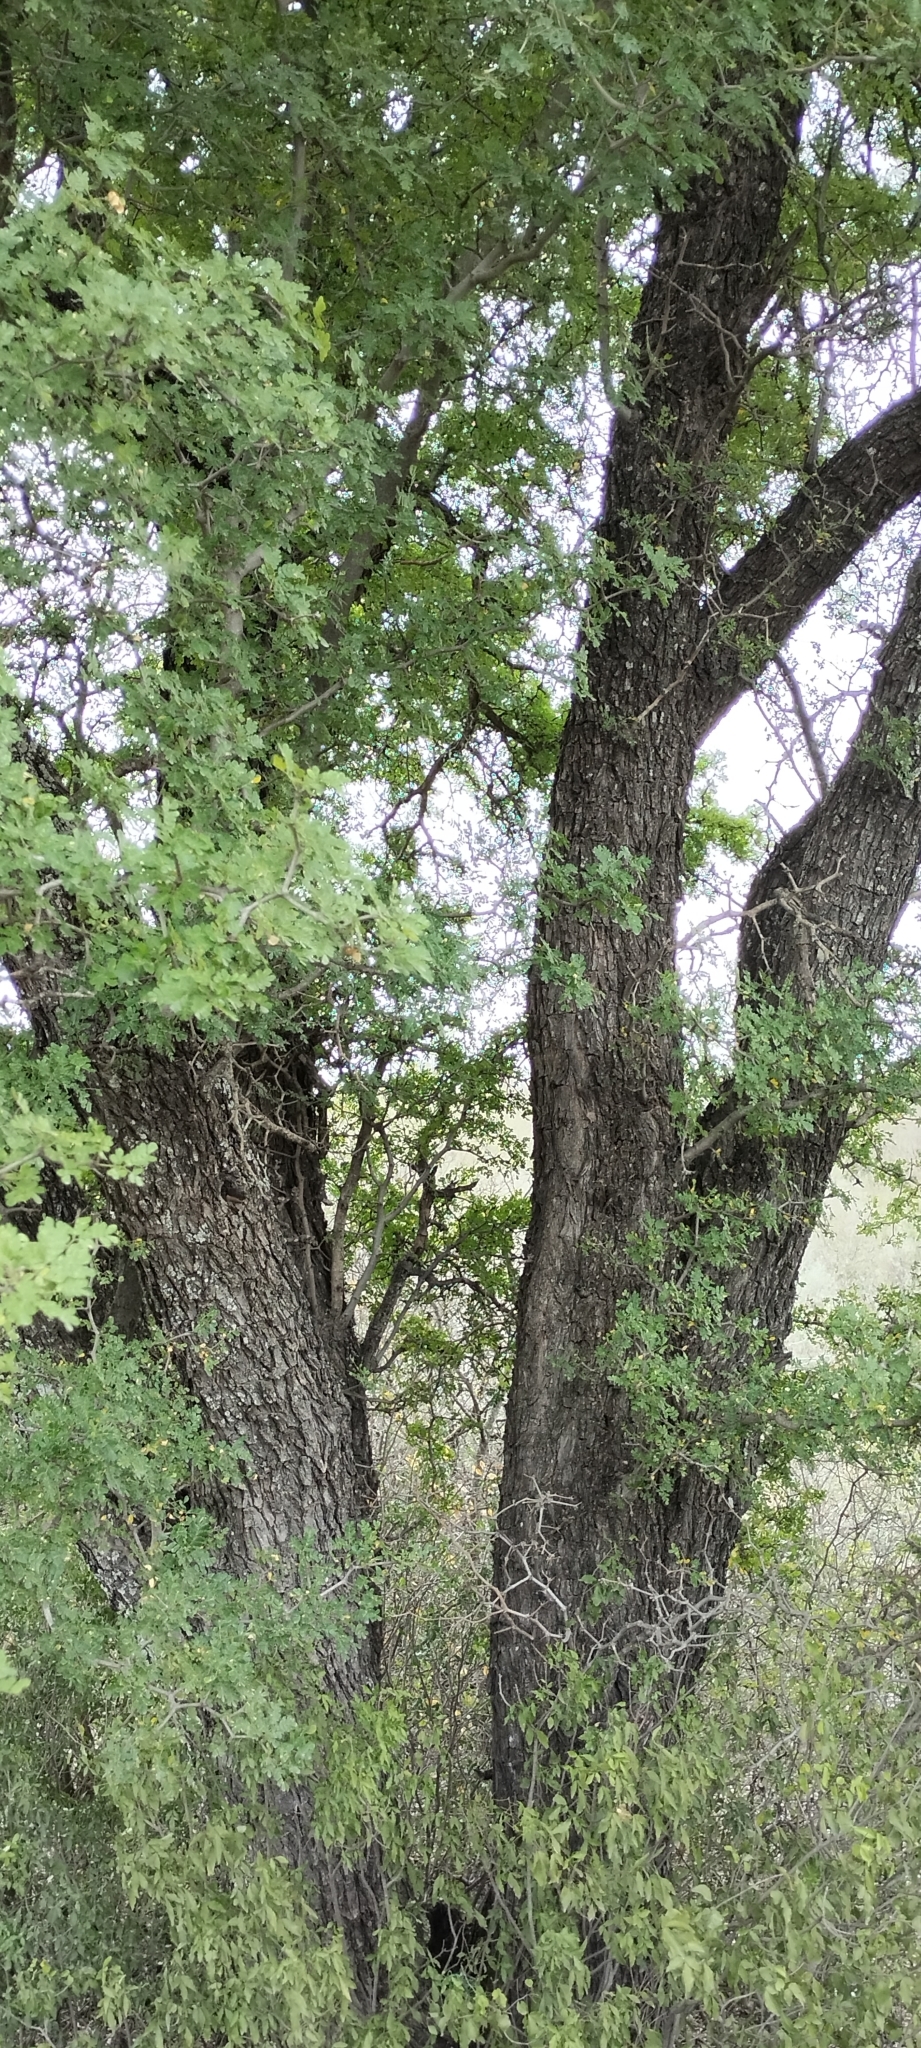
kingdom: Plantae
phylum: Tracheophyta
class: Magnoliopsida
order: Fabales
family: Fabaceae
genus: Ebenopsis
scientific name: Ebenopsis ebano
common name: Ebony blackbead
